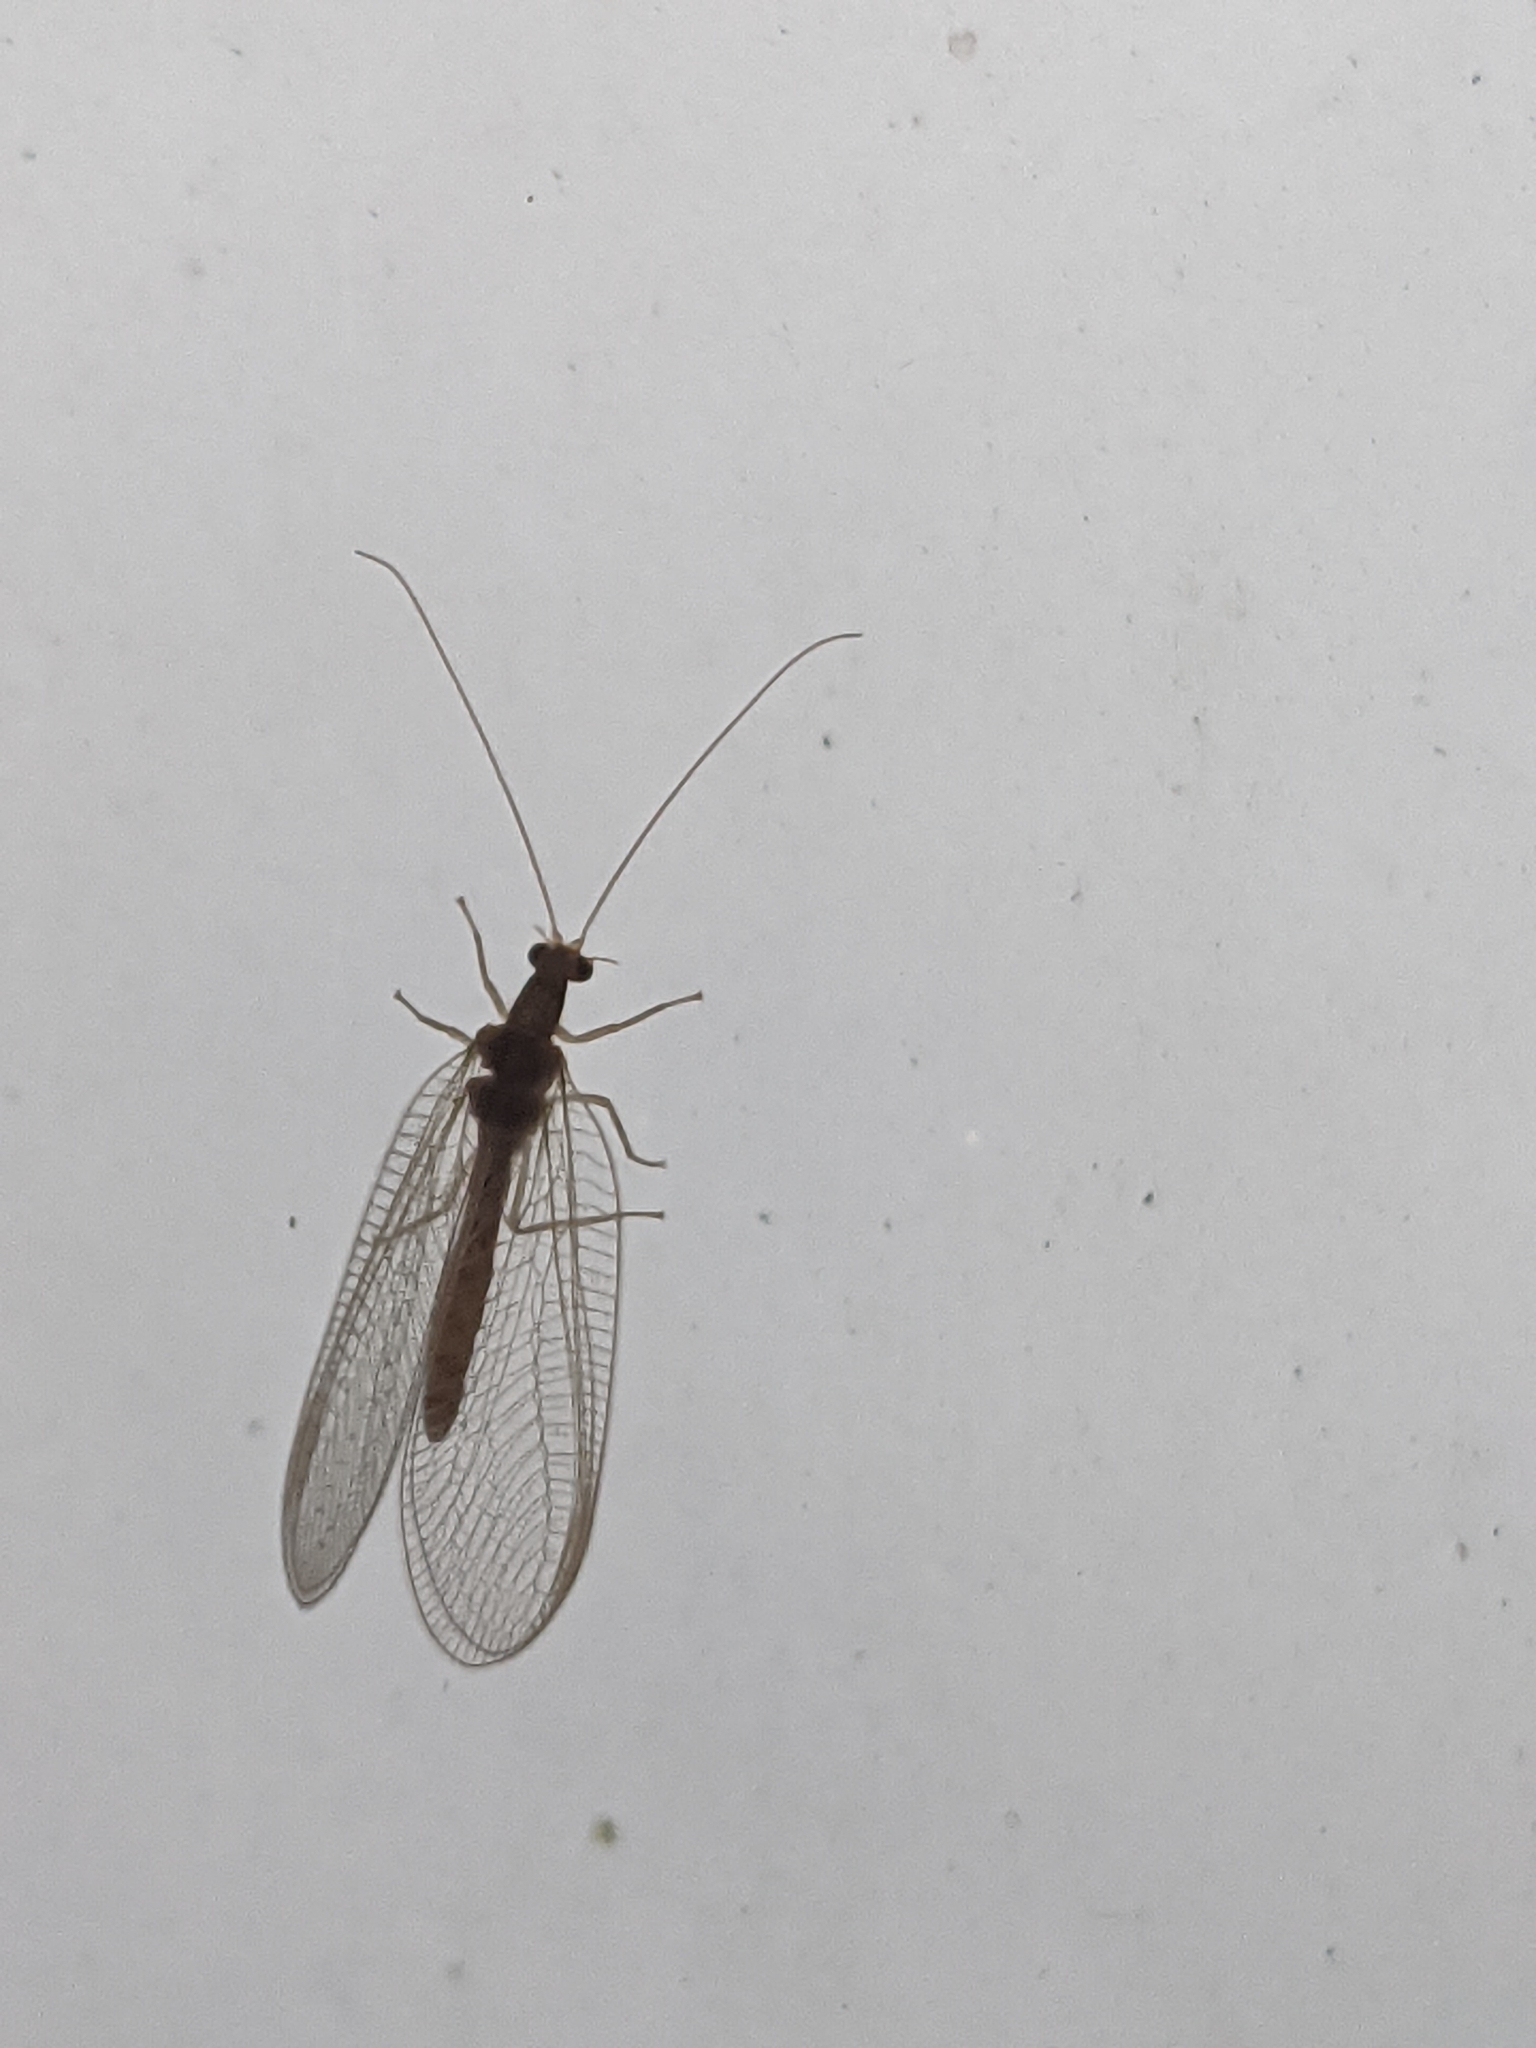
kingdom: Animalia
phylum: Arthropoda
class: Insecta
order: Neuroptera
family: Chrysopidae
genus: Chrysoperla
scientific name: Chrysoperla
